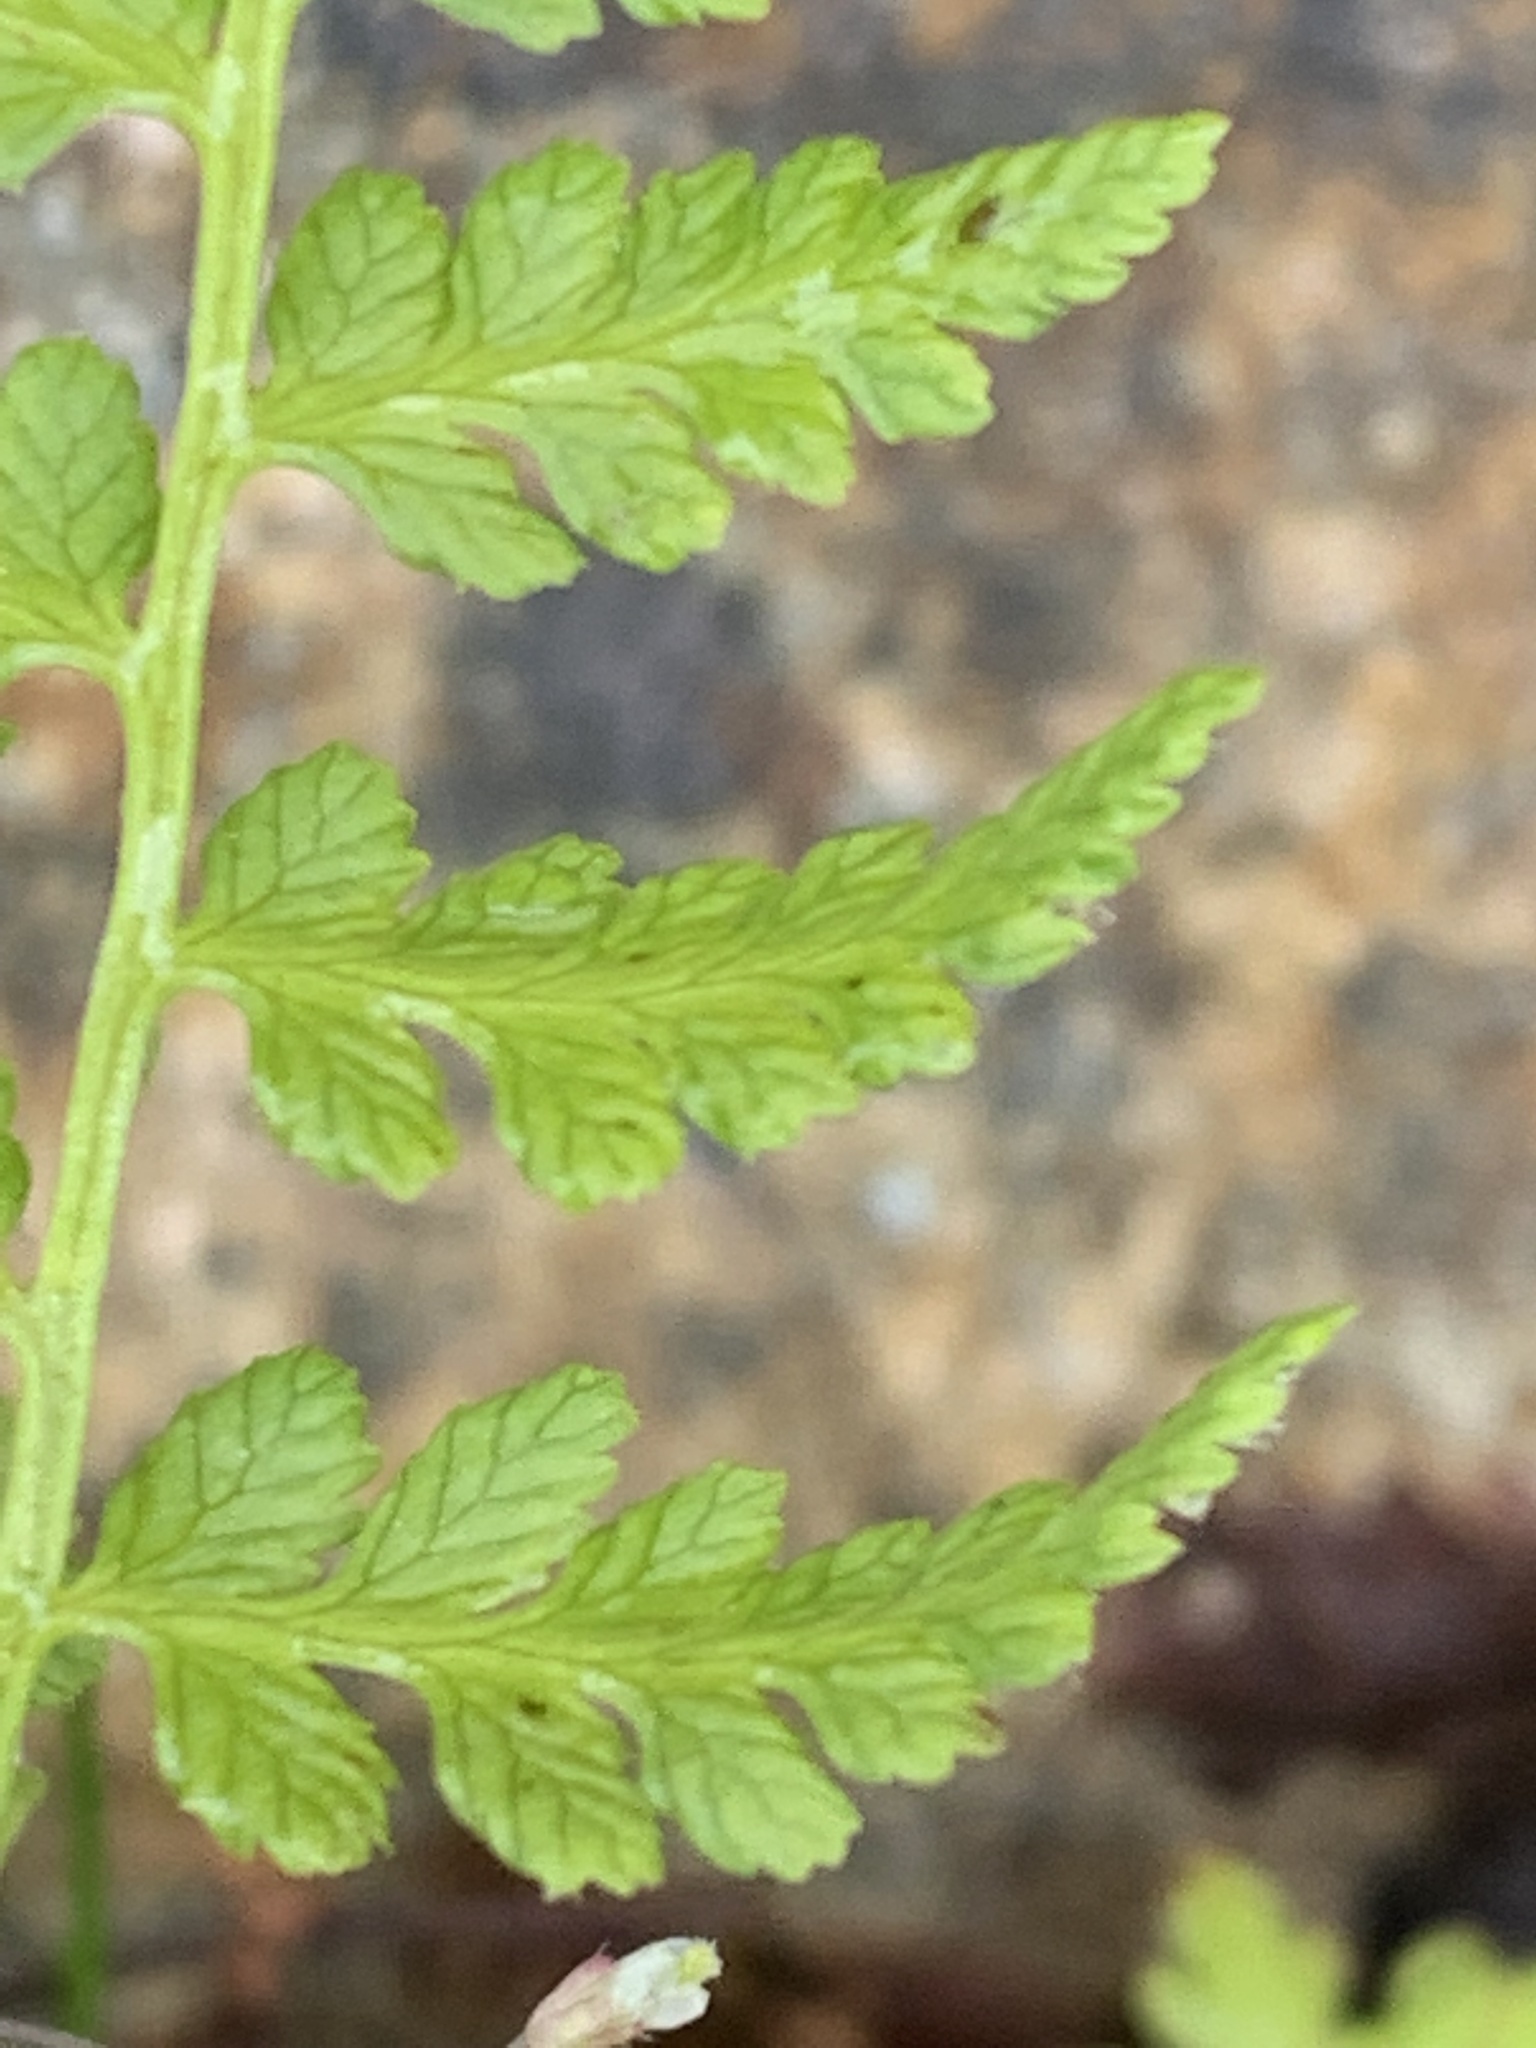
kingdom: Plantae
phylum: Tracheophyta
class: Polypodiopsida
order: Polypodiales
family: Cystopteridaceae
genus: Cystopteris
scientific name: Cystopteris fragilis
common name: Brittle bladder fern
